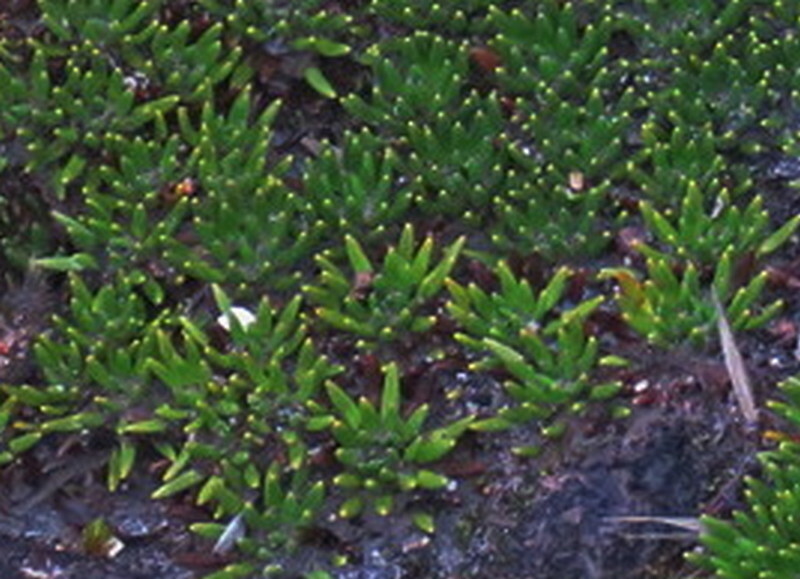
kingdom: Plantae
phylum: Tracheophyta
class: Magnoliopsida
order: Asterales
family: Asteraceae
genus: Werneria
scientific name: Werneria humilis
